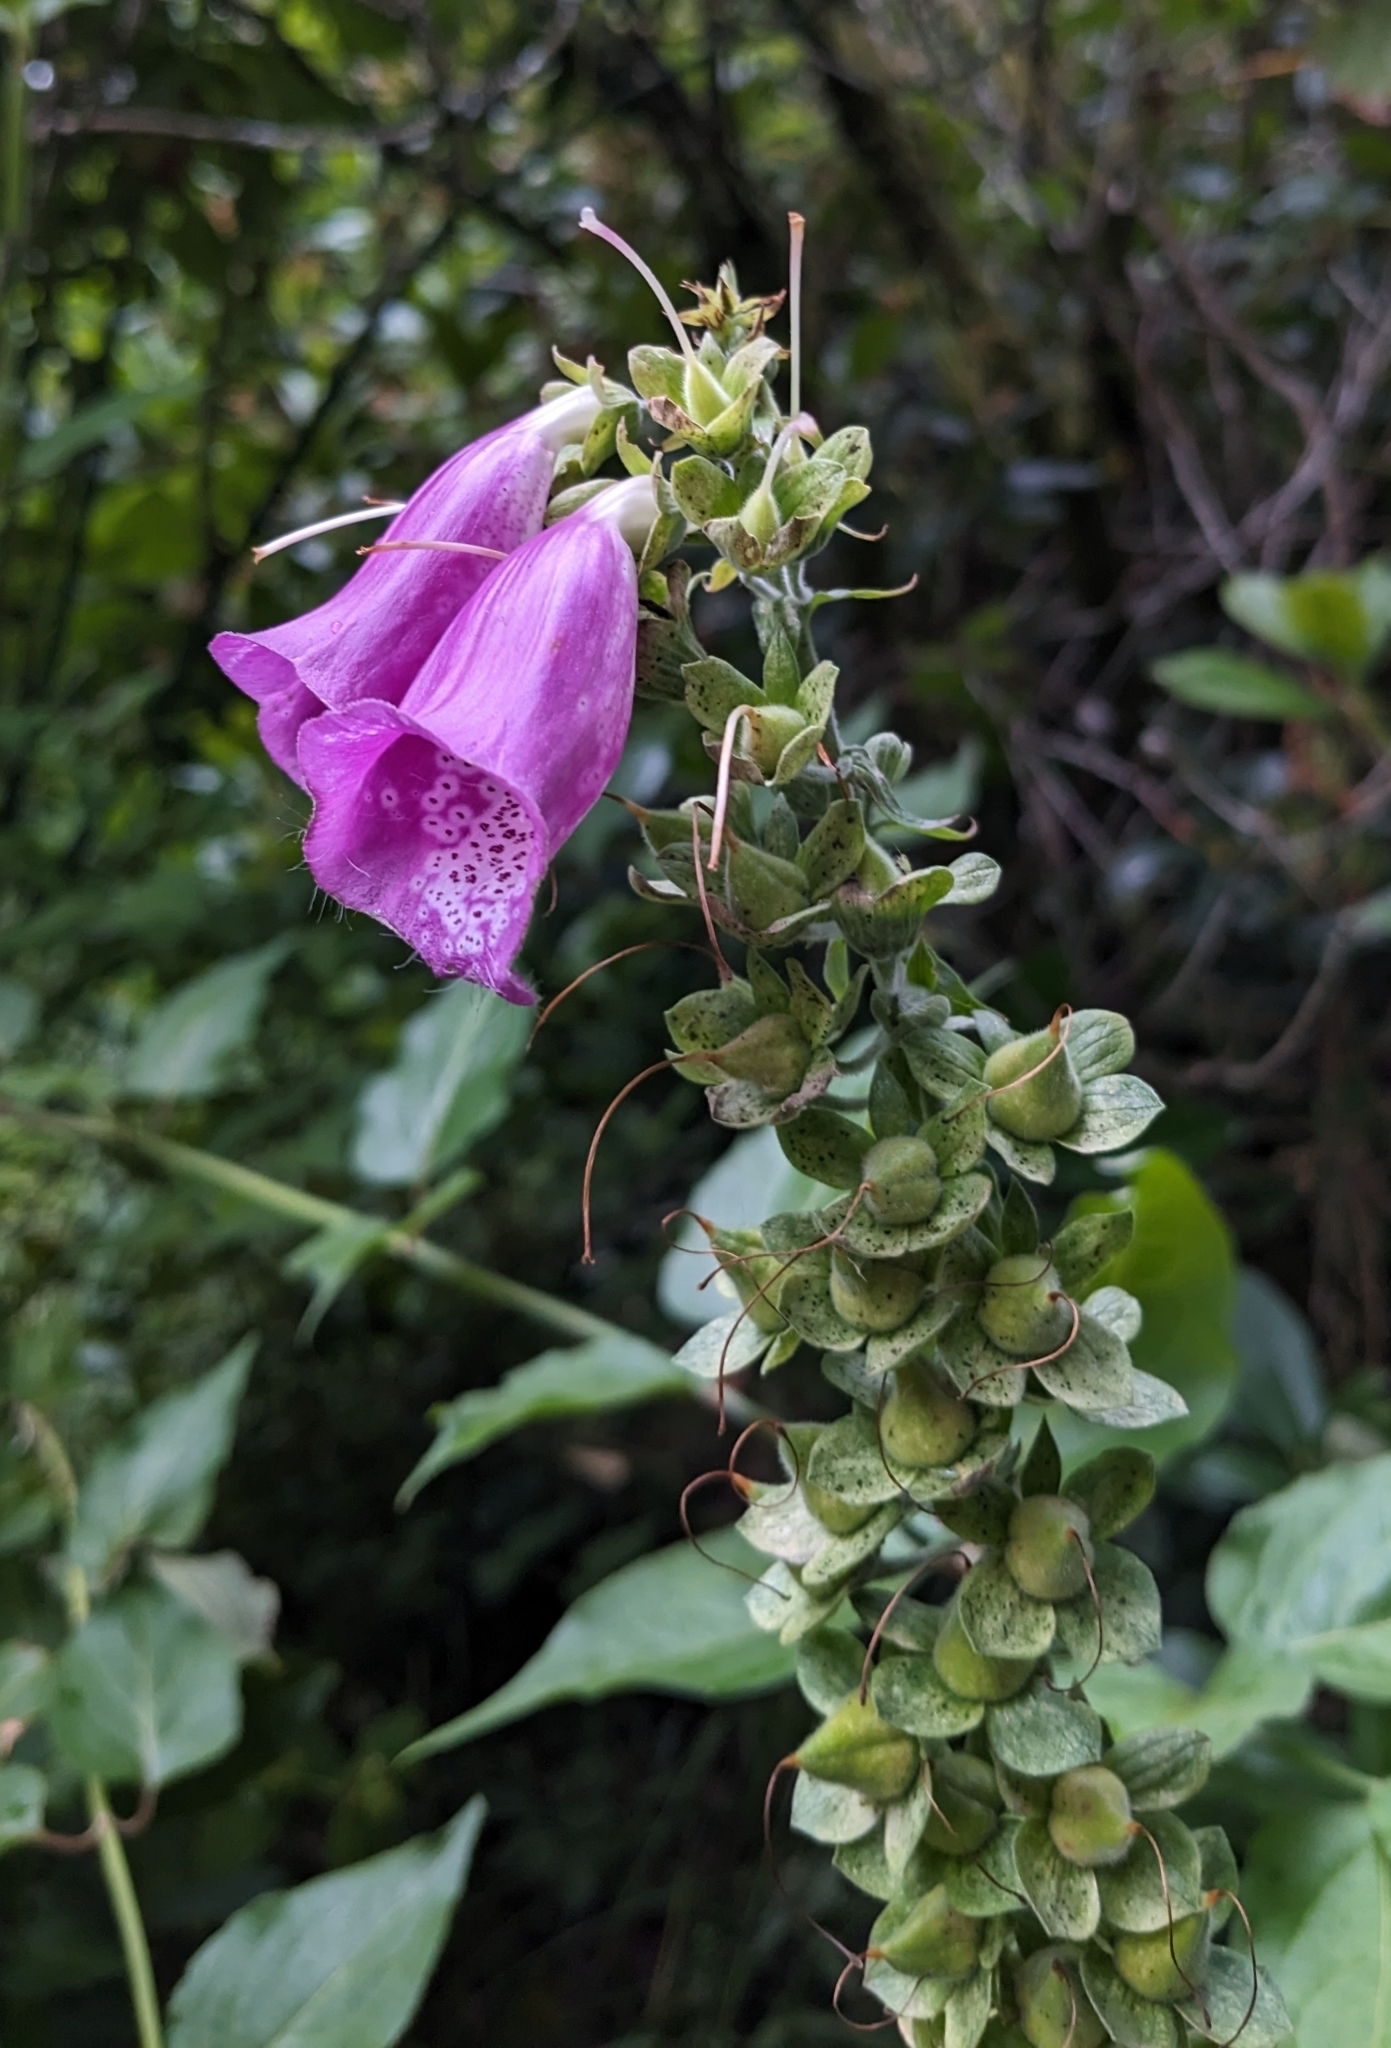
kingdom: Plantae
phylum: Tracheophyta
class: Magnoliopsida
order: Lamiales
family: Plantaginaceae
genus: Digitalis
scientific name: Digitalis purpurea
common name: Foxglove
